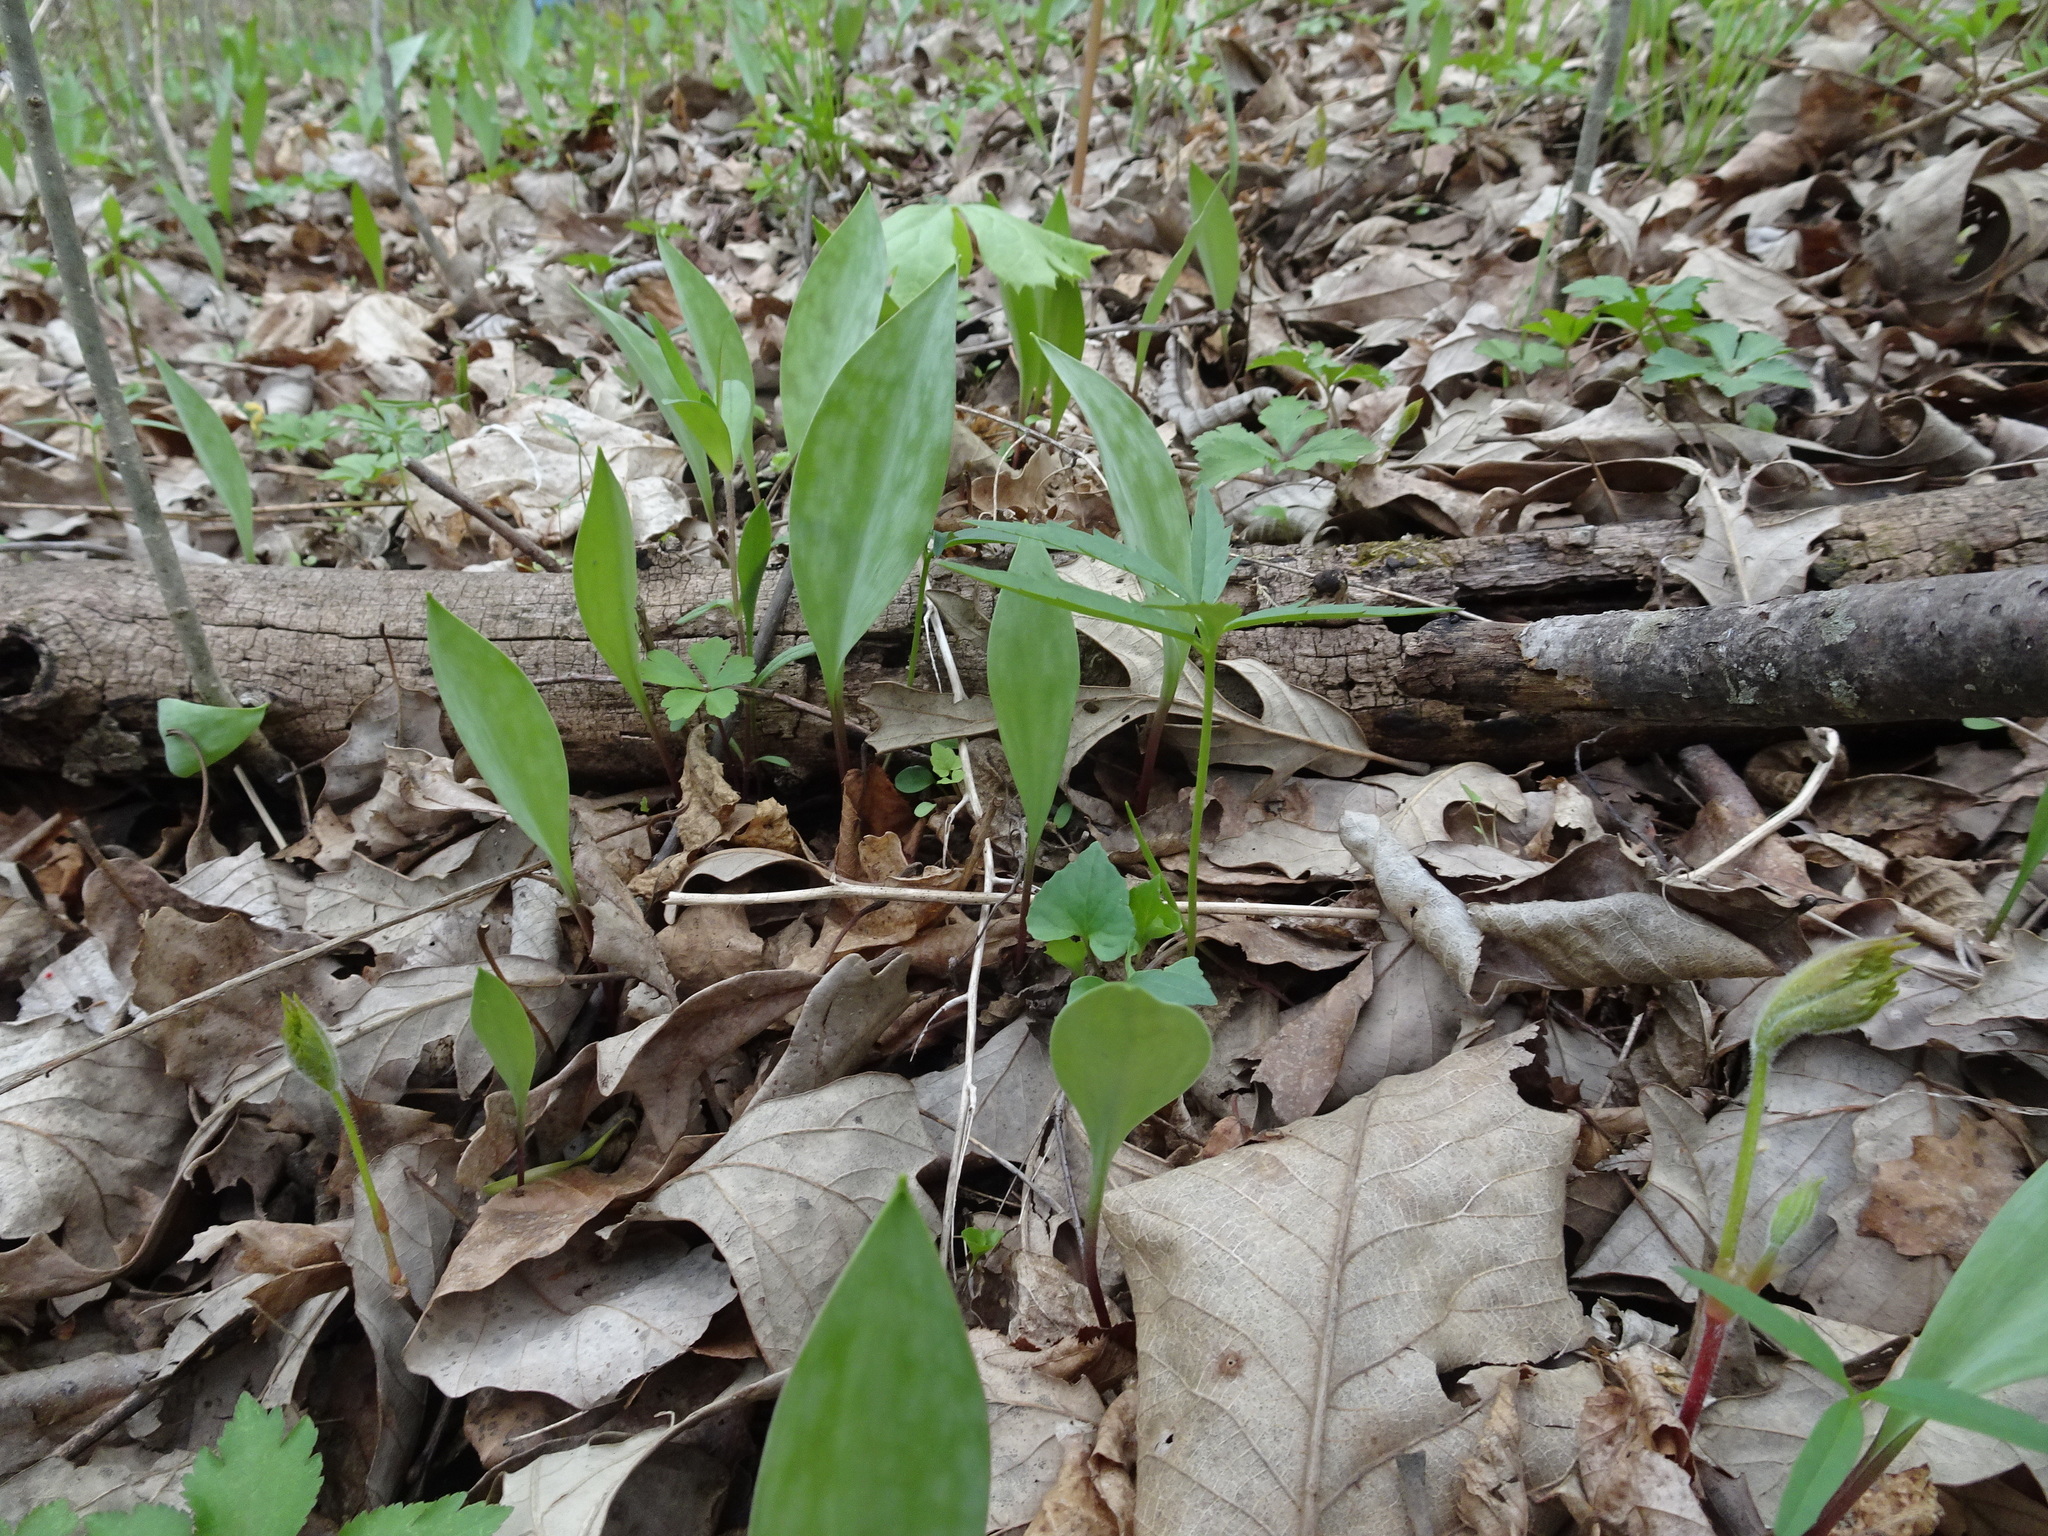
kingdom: Plantae
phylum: Tracheophyta
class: Liliopsida
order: Liliales
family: Liliaceae
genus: Erythronium
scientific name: Erythronium albidum
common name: White trout-lily
